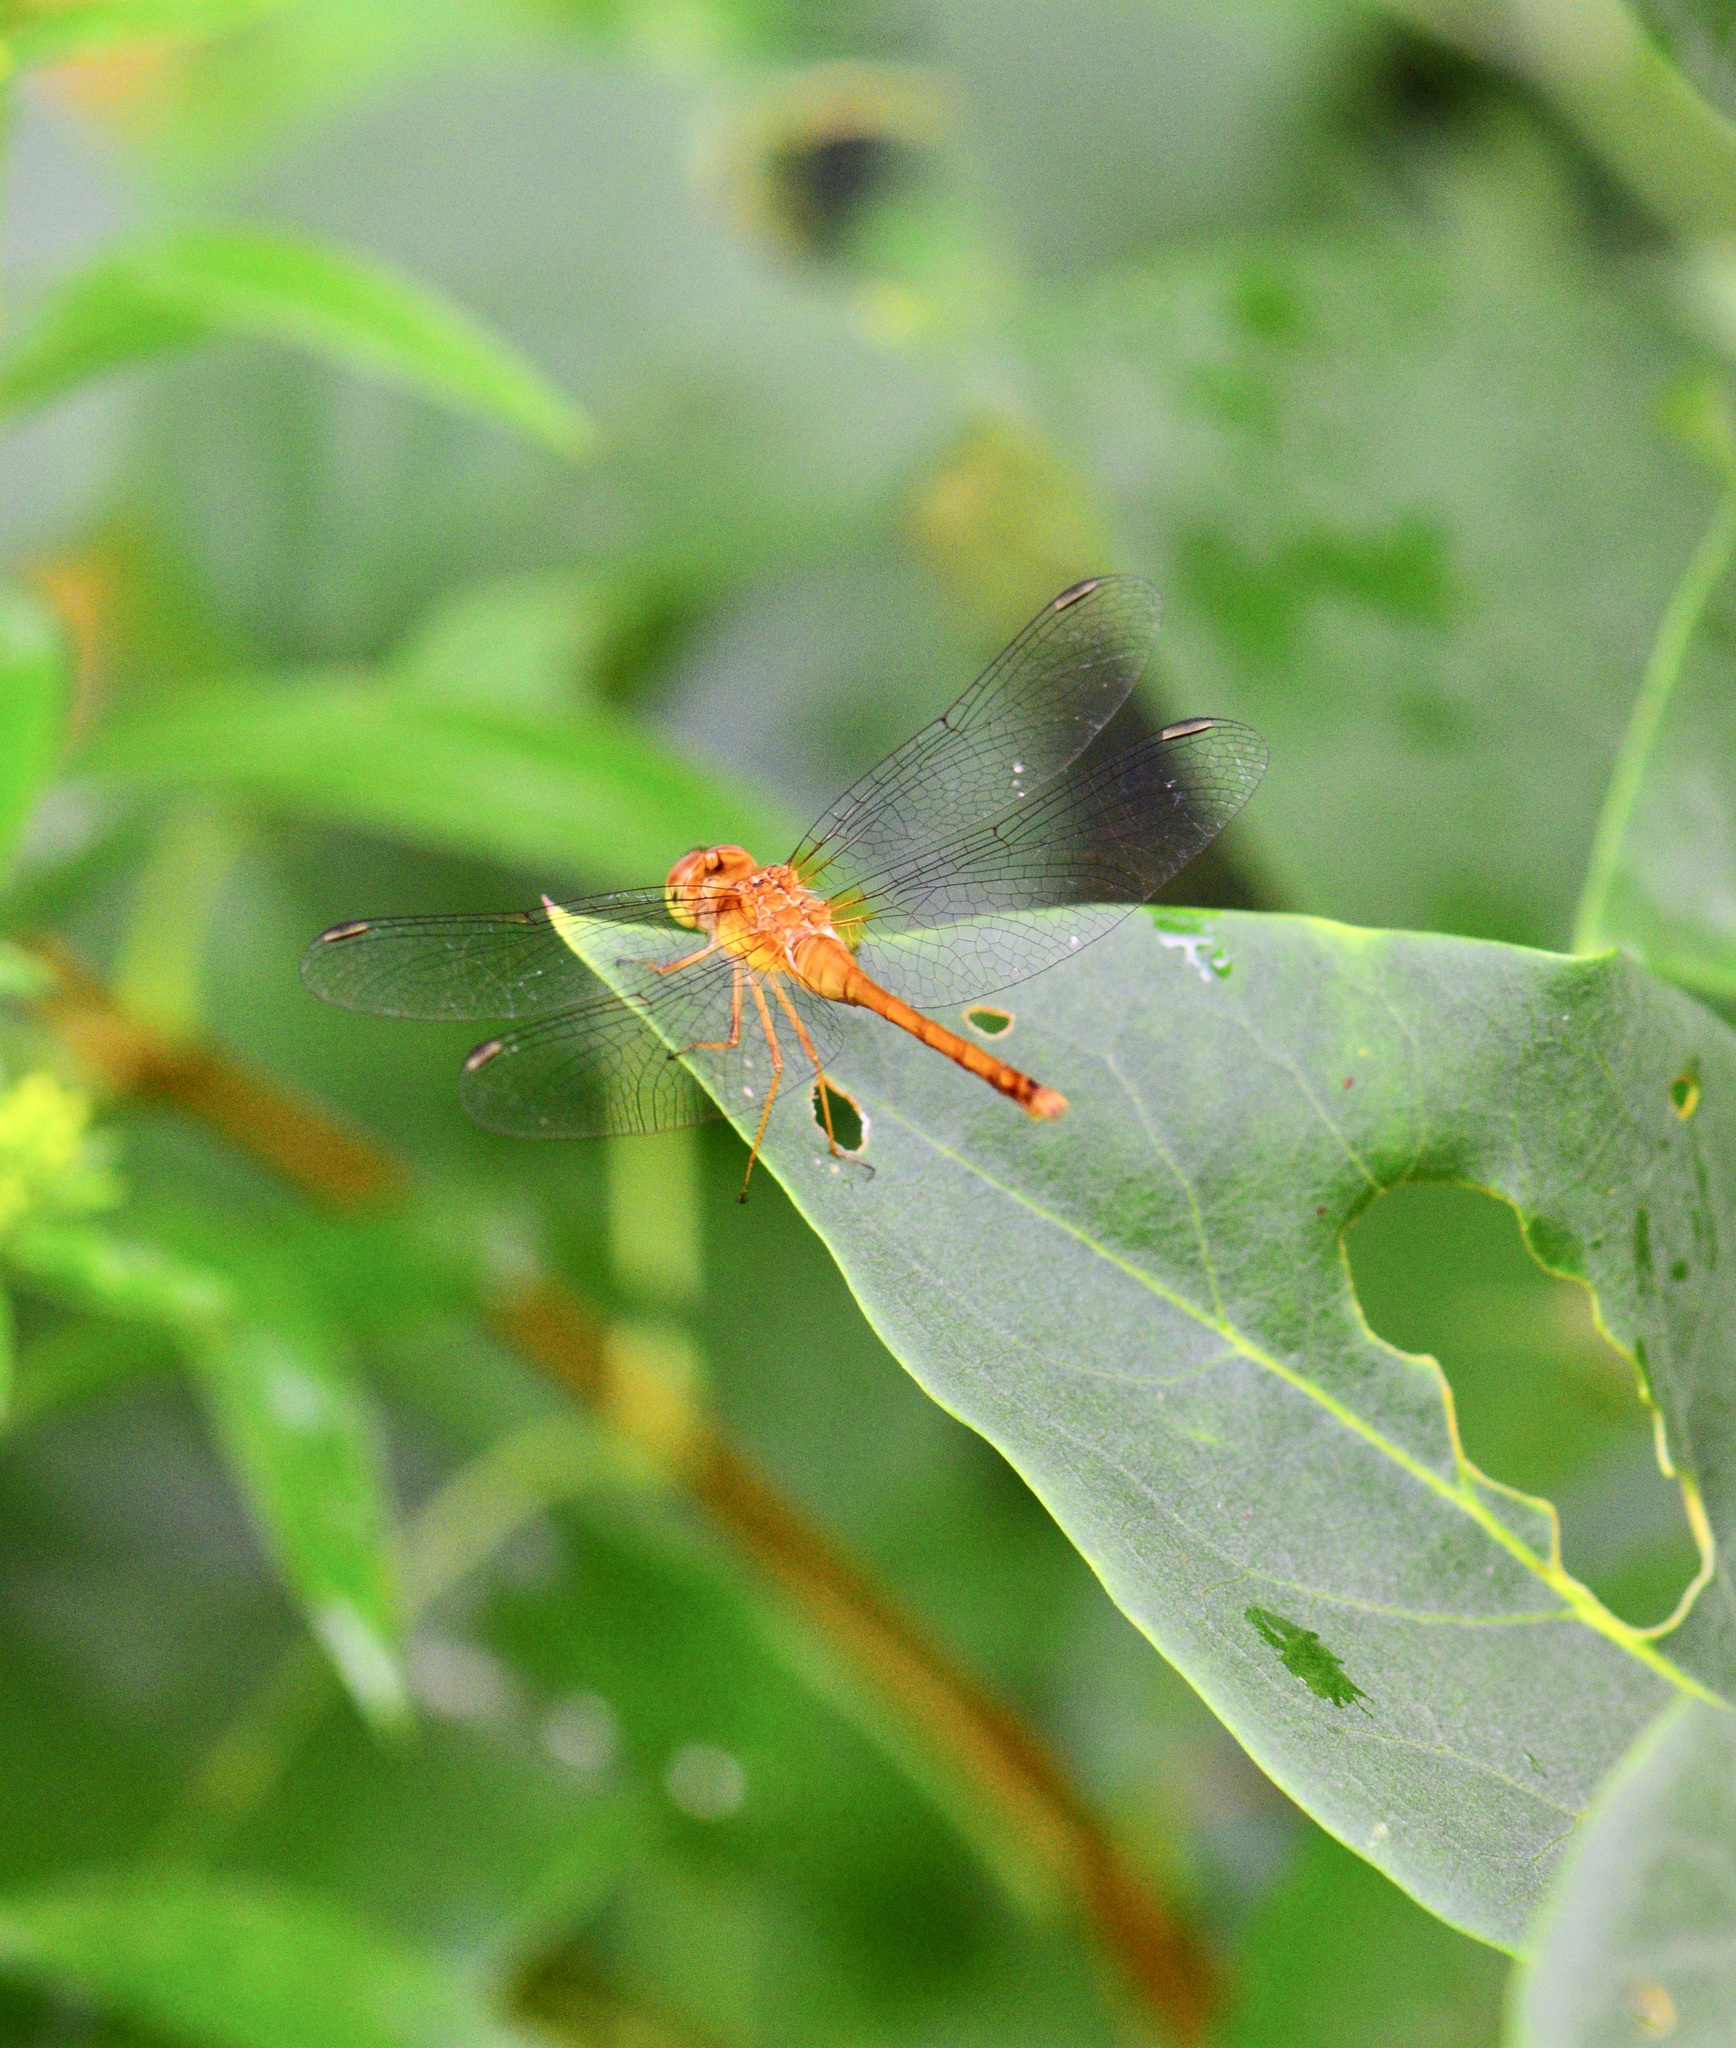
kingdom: Animalia
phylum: Arthropoda
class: Insecta
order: Odonata
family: Libellulidae
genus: Sympetrum
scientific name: Sympetrum vicinum
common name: Autumn meadowhawk
